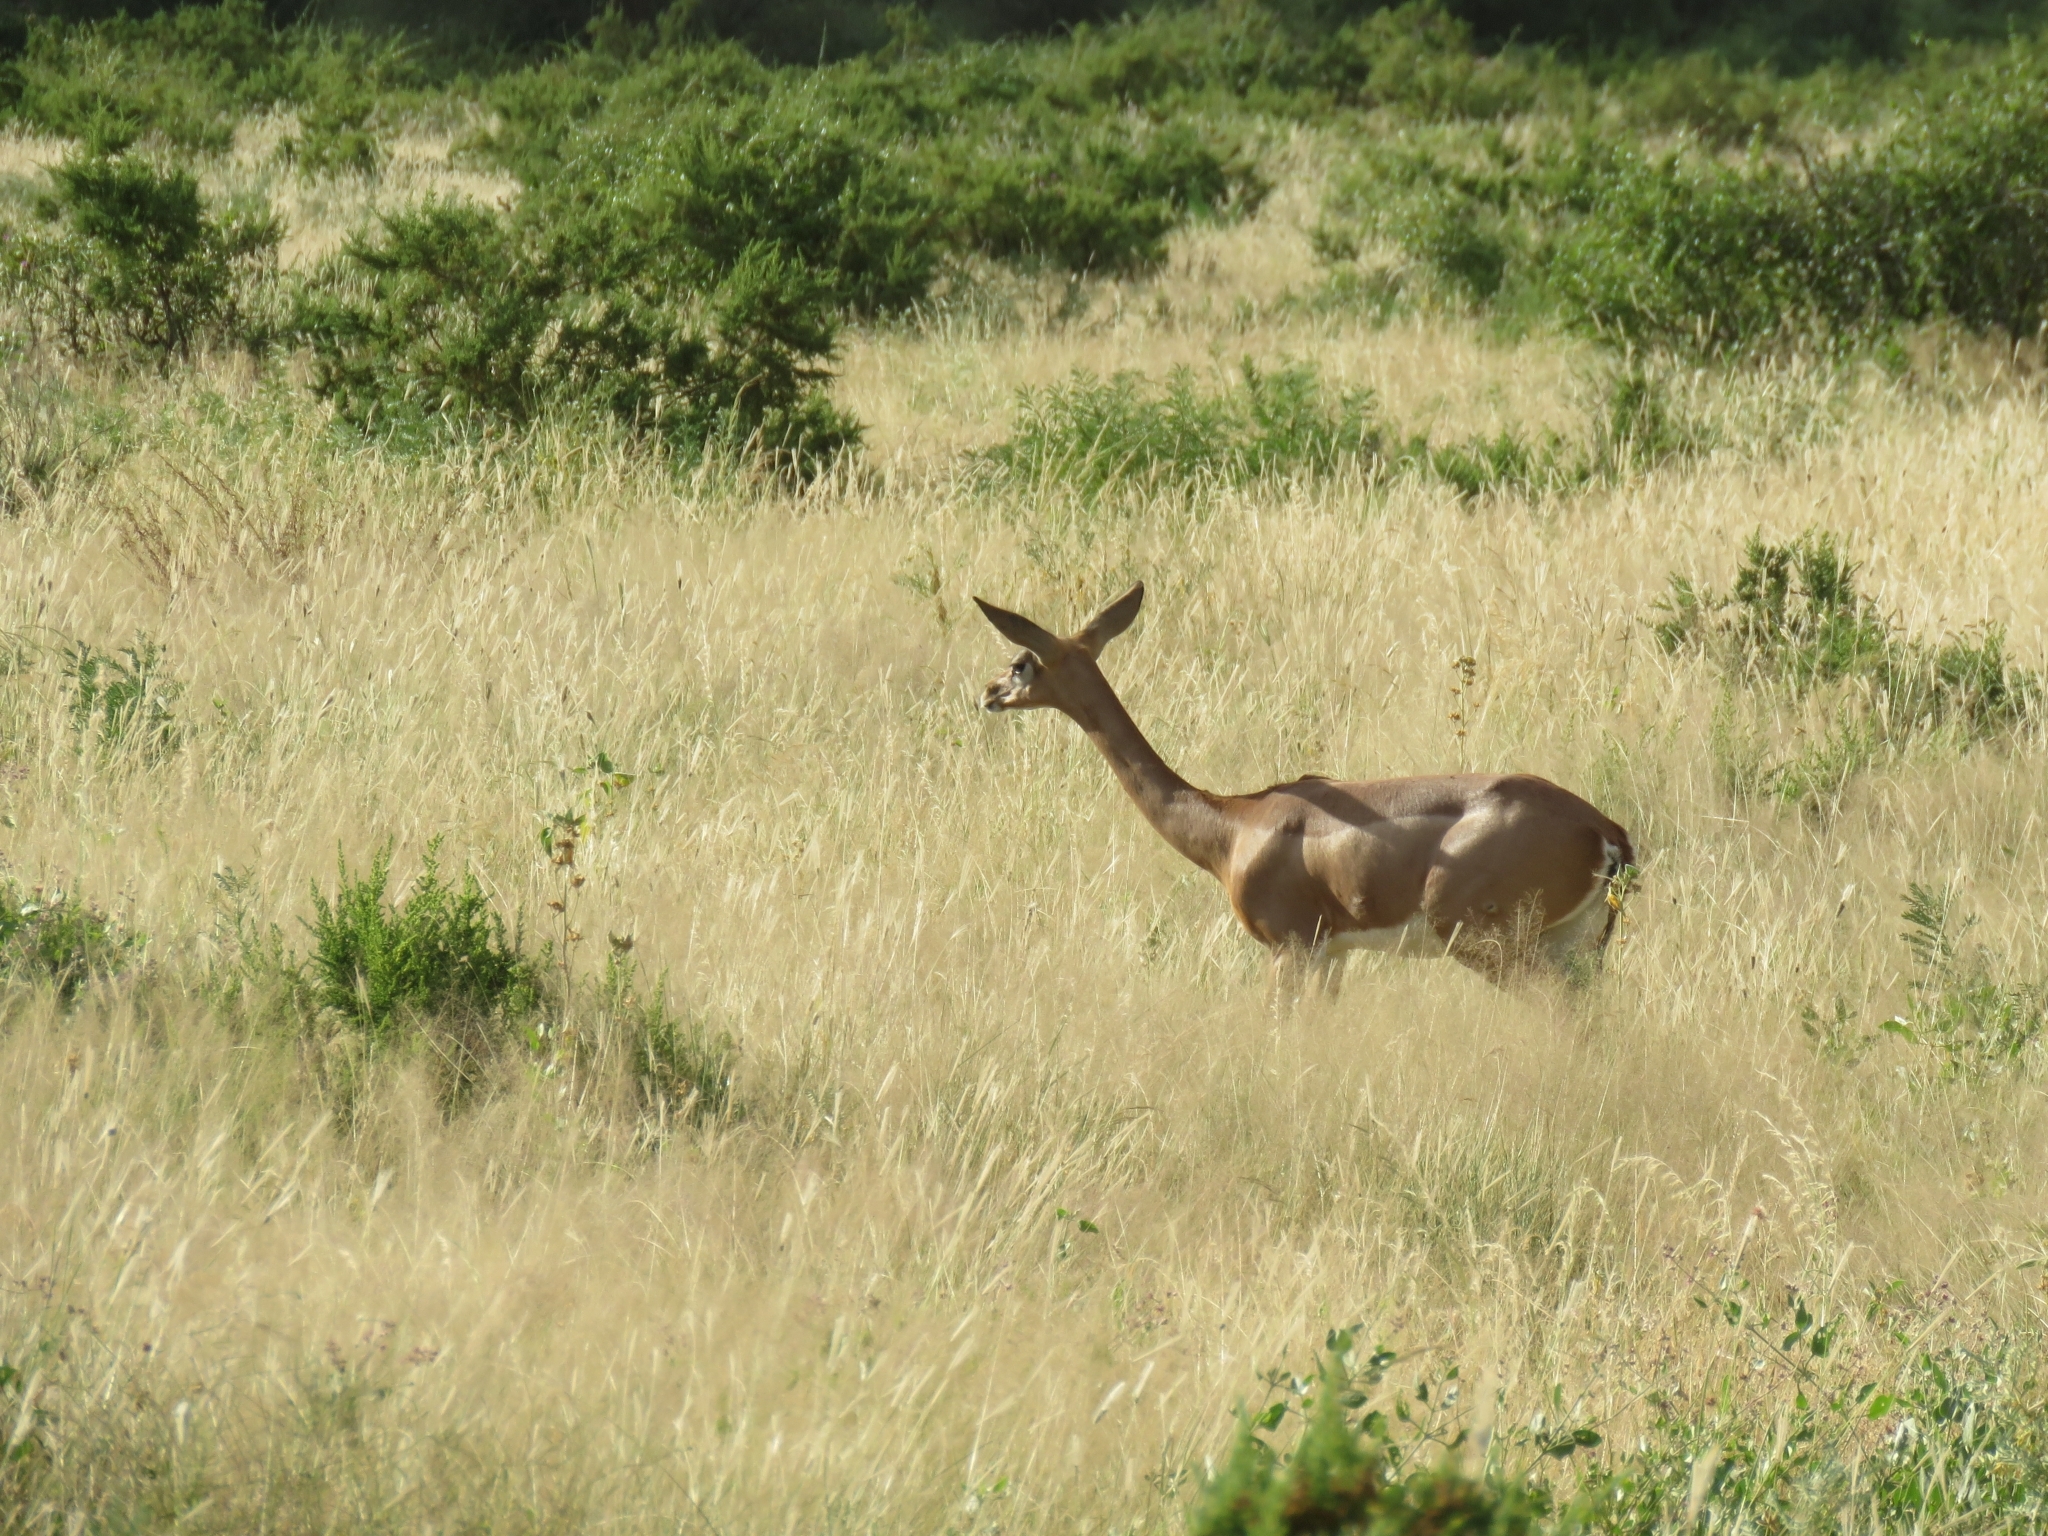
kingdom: Animalia
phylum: Chordata
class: Mammalia
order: Artiodactyla
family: Bovidae
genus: Litocranius
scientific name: Litocranius walleri
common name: Gerenuk
